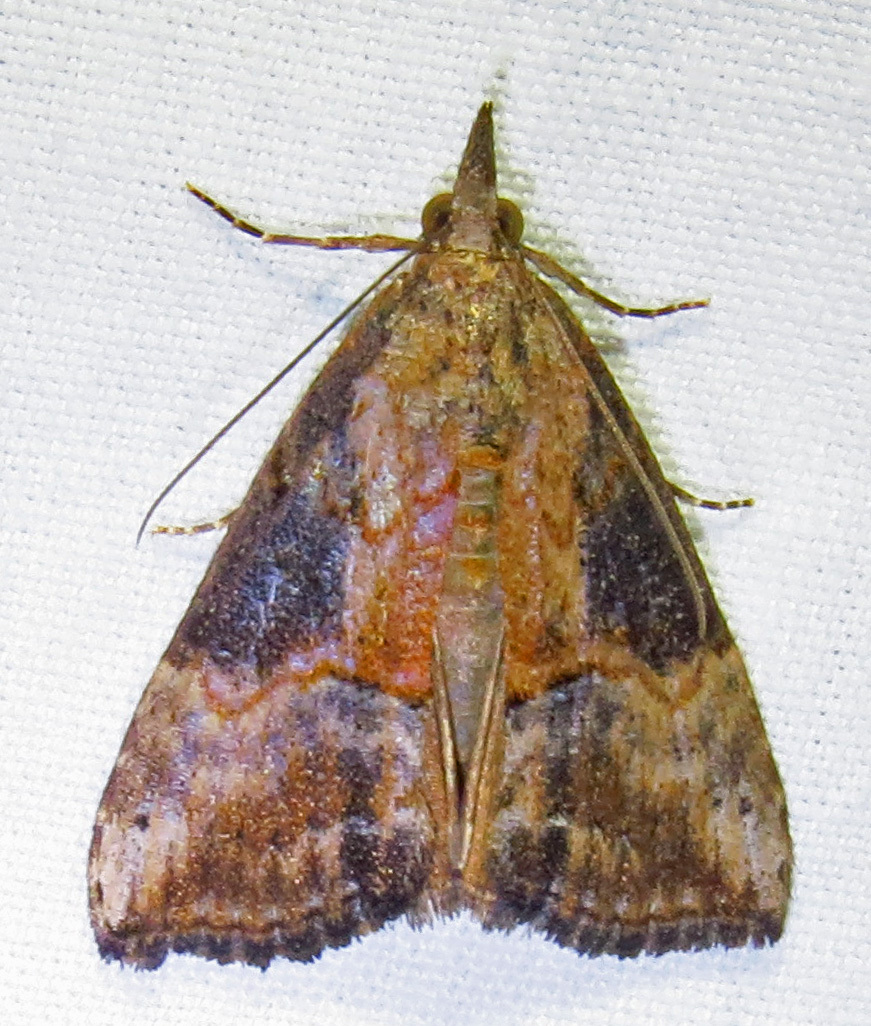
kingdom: Animalia
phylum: Arthropoda
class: Insecta
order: Lepidoptera
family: Erebidae
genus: Hypena
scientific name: Hypena scabra
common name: Green cloverworm
